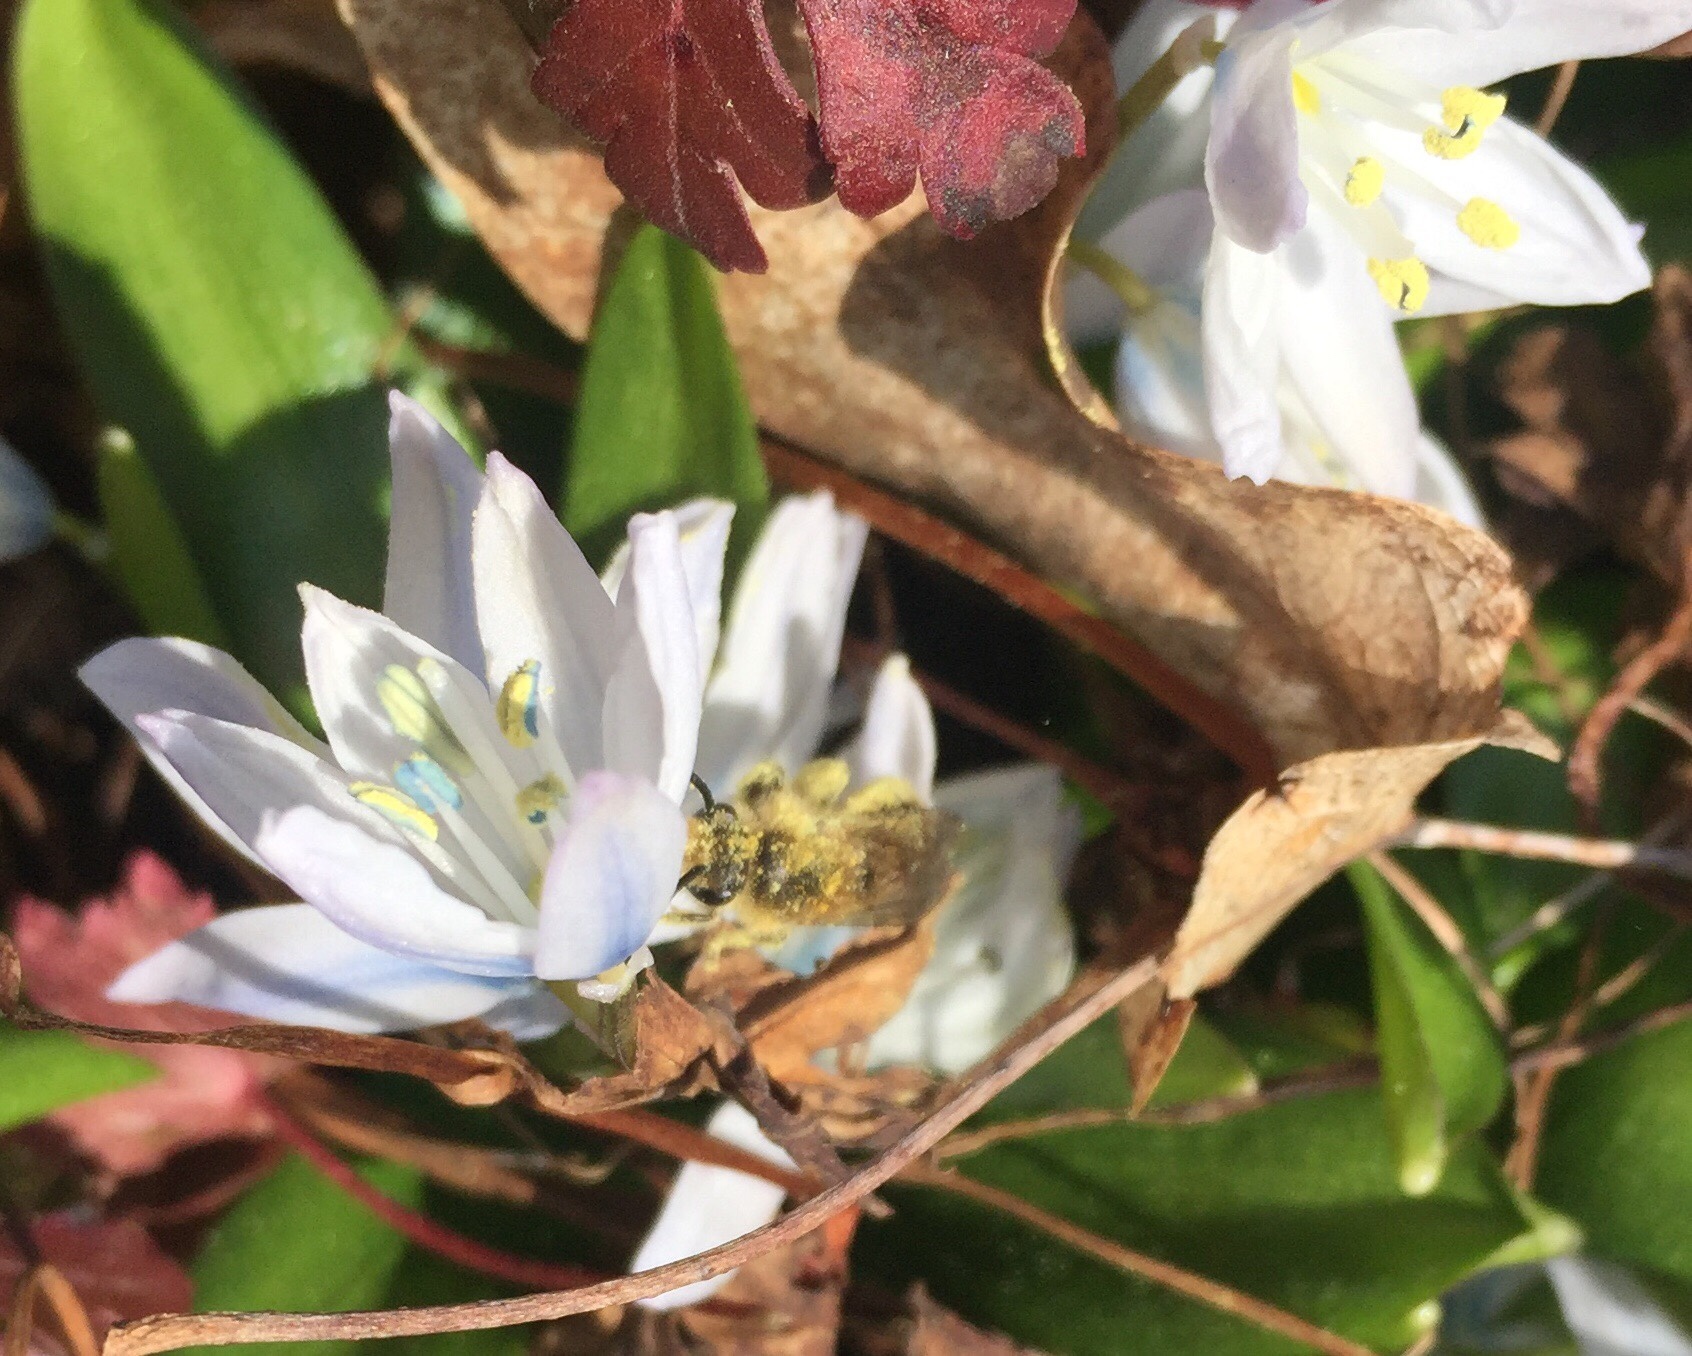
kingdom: Animalia
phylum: Arthropoda
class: Insecta
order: Hymenoptera
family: Colletidae
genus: Colletes
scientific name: Colletes inaequalis
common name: Unequal cellophane bee
